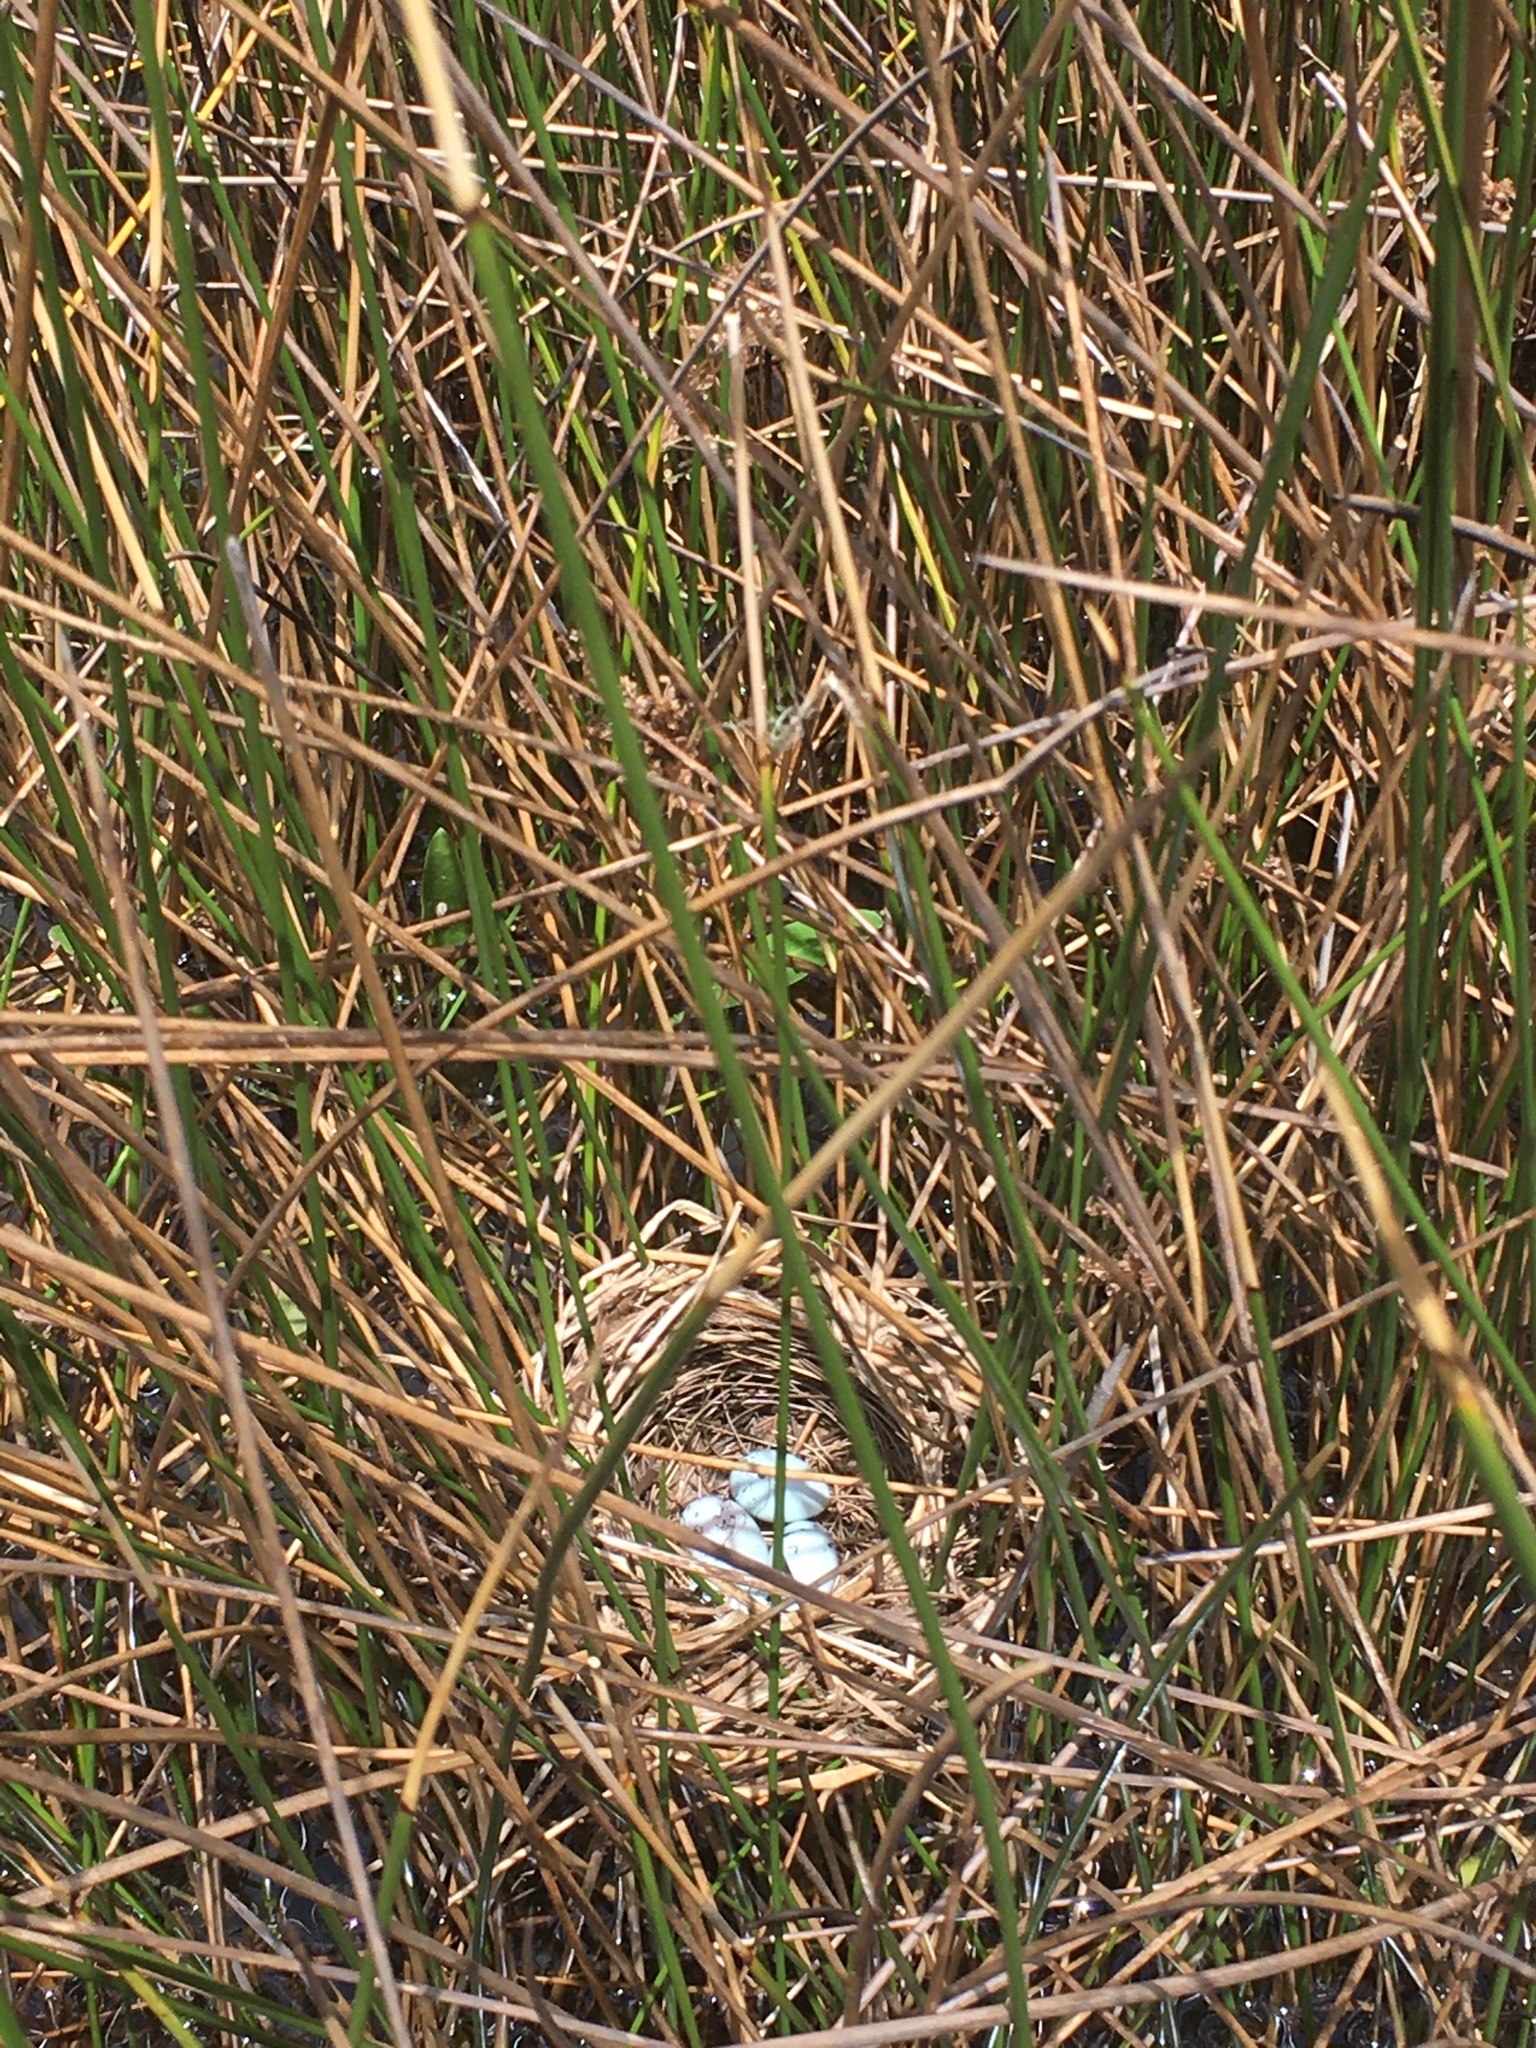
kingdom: Animalia
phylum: Chordata
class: Aves
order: Passeriformes
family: Icteridae
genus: Agelaius
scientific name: Agelaius phoeniceus
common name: Red-winged blackbird
